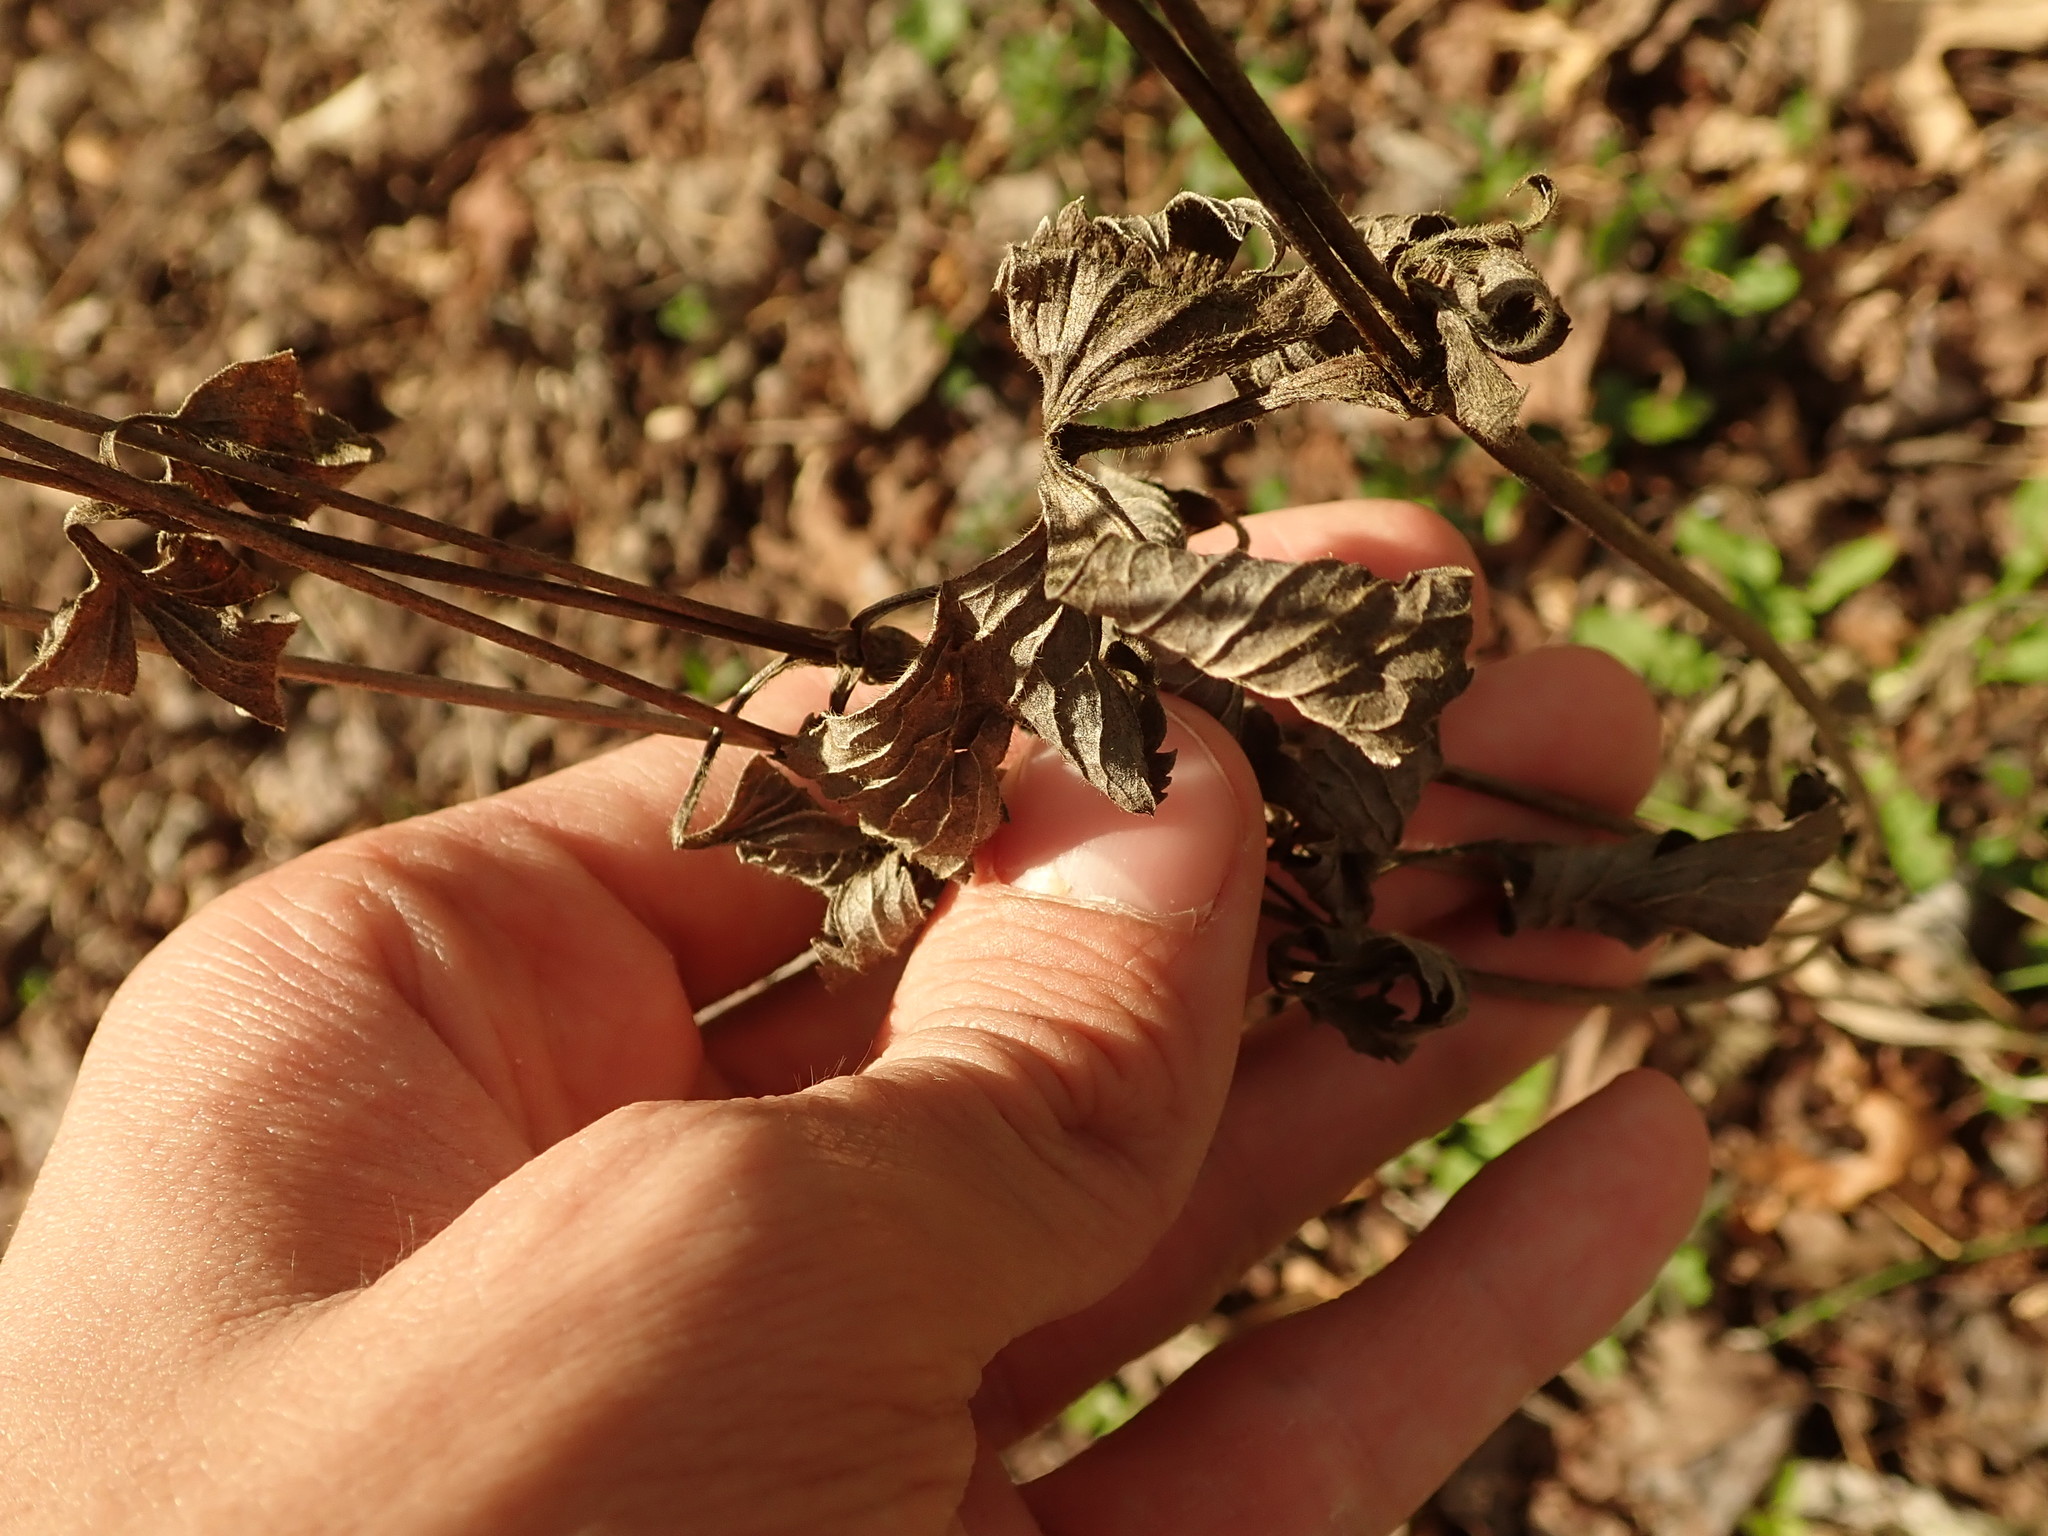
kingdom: Plantae
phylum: Tracheophyta
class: Magnoliopsida
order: Malvales
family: Malvaceae
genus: Gossypium
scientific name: Gossypium hirsutum
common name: Cotton
